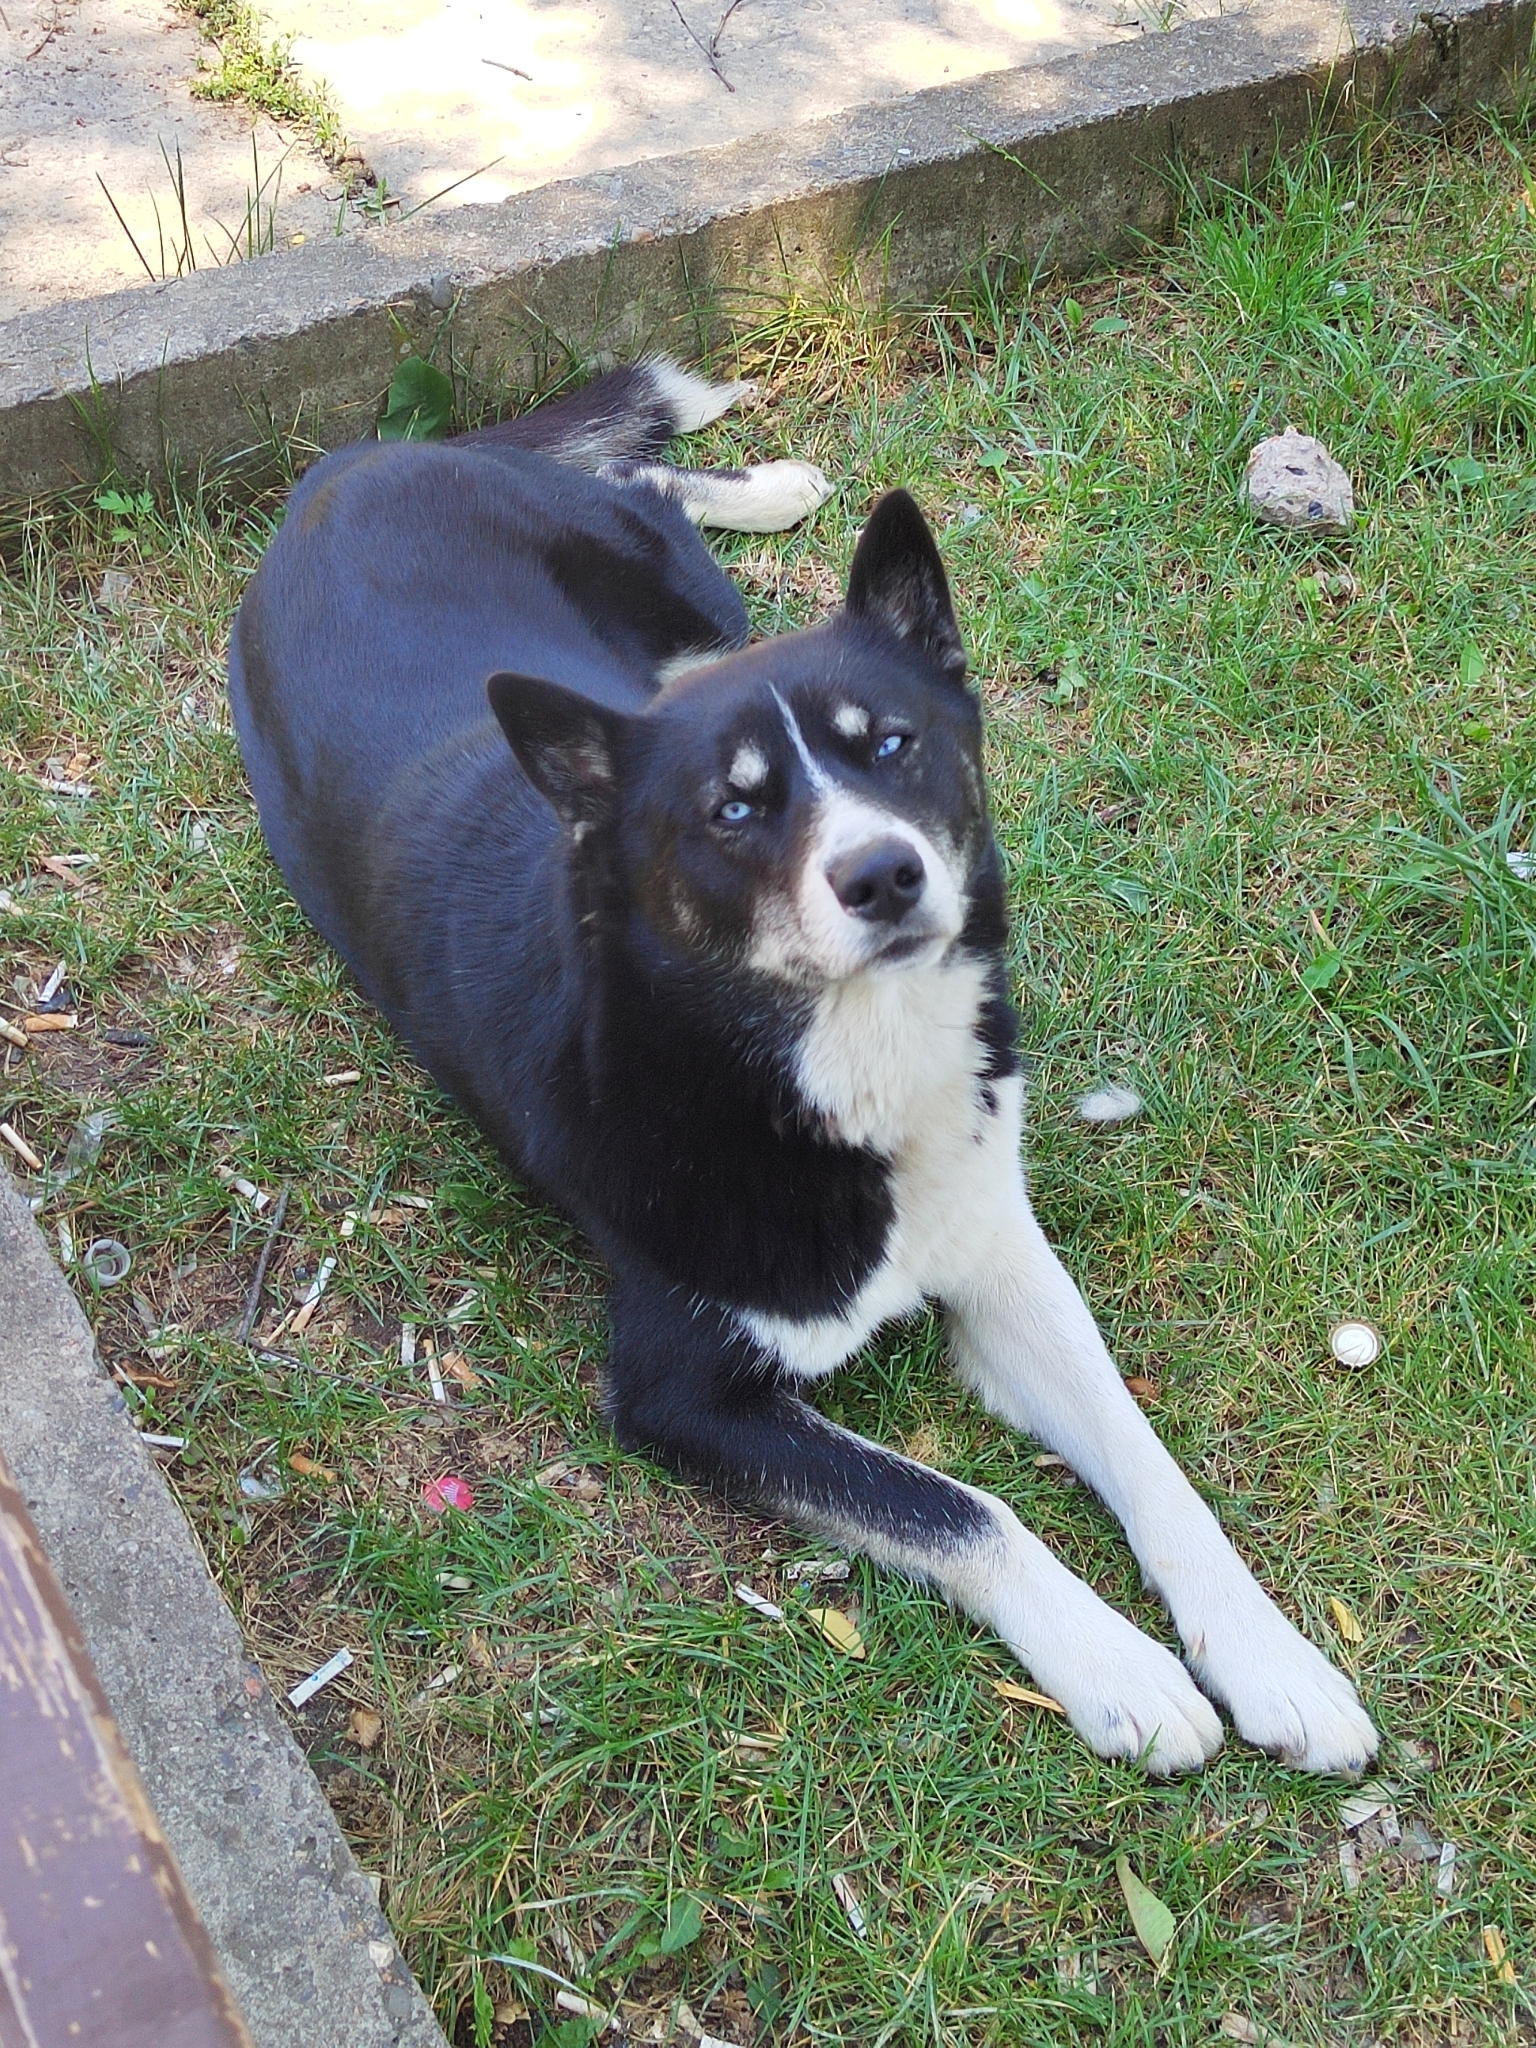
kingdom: Animalia
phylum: Chordata
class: Mammalia
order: Carnivora
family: Canidae
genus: Canis
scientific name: Canis lupus
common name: Gray wolf
